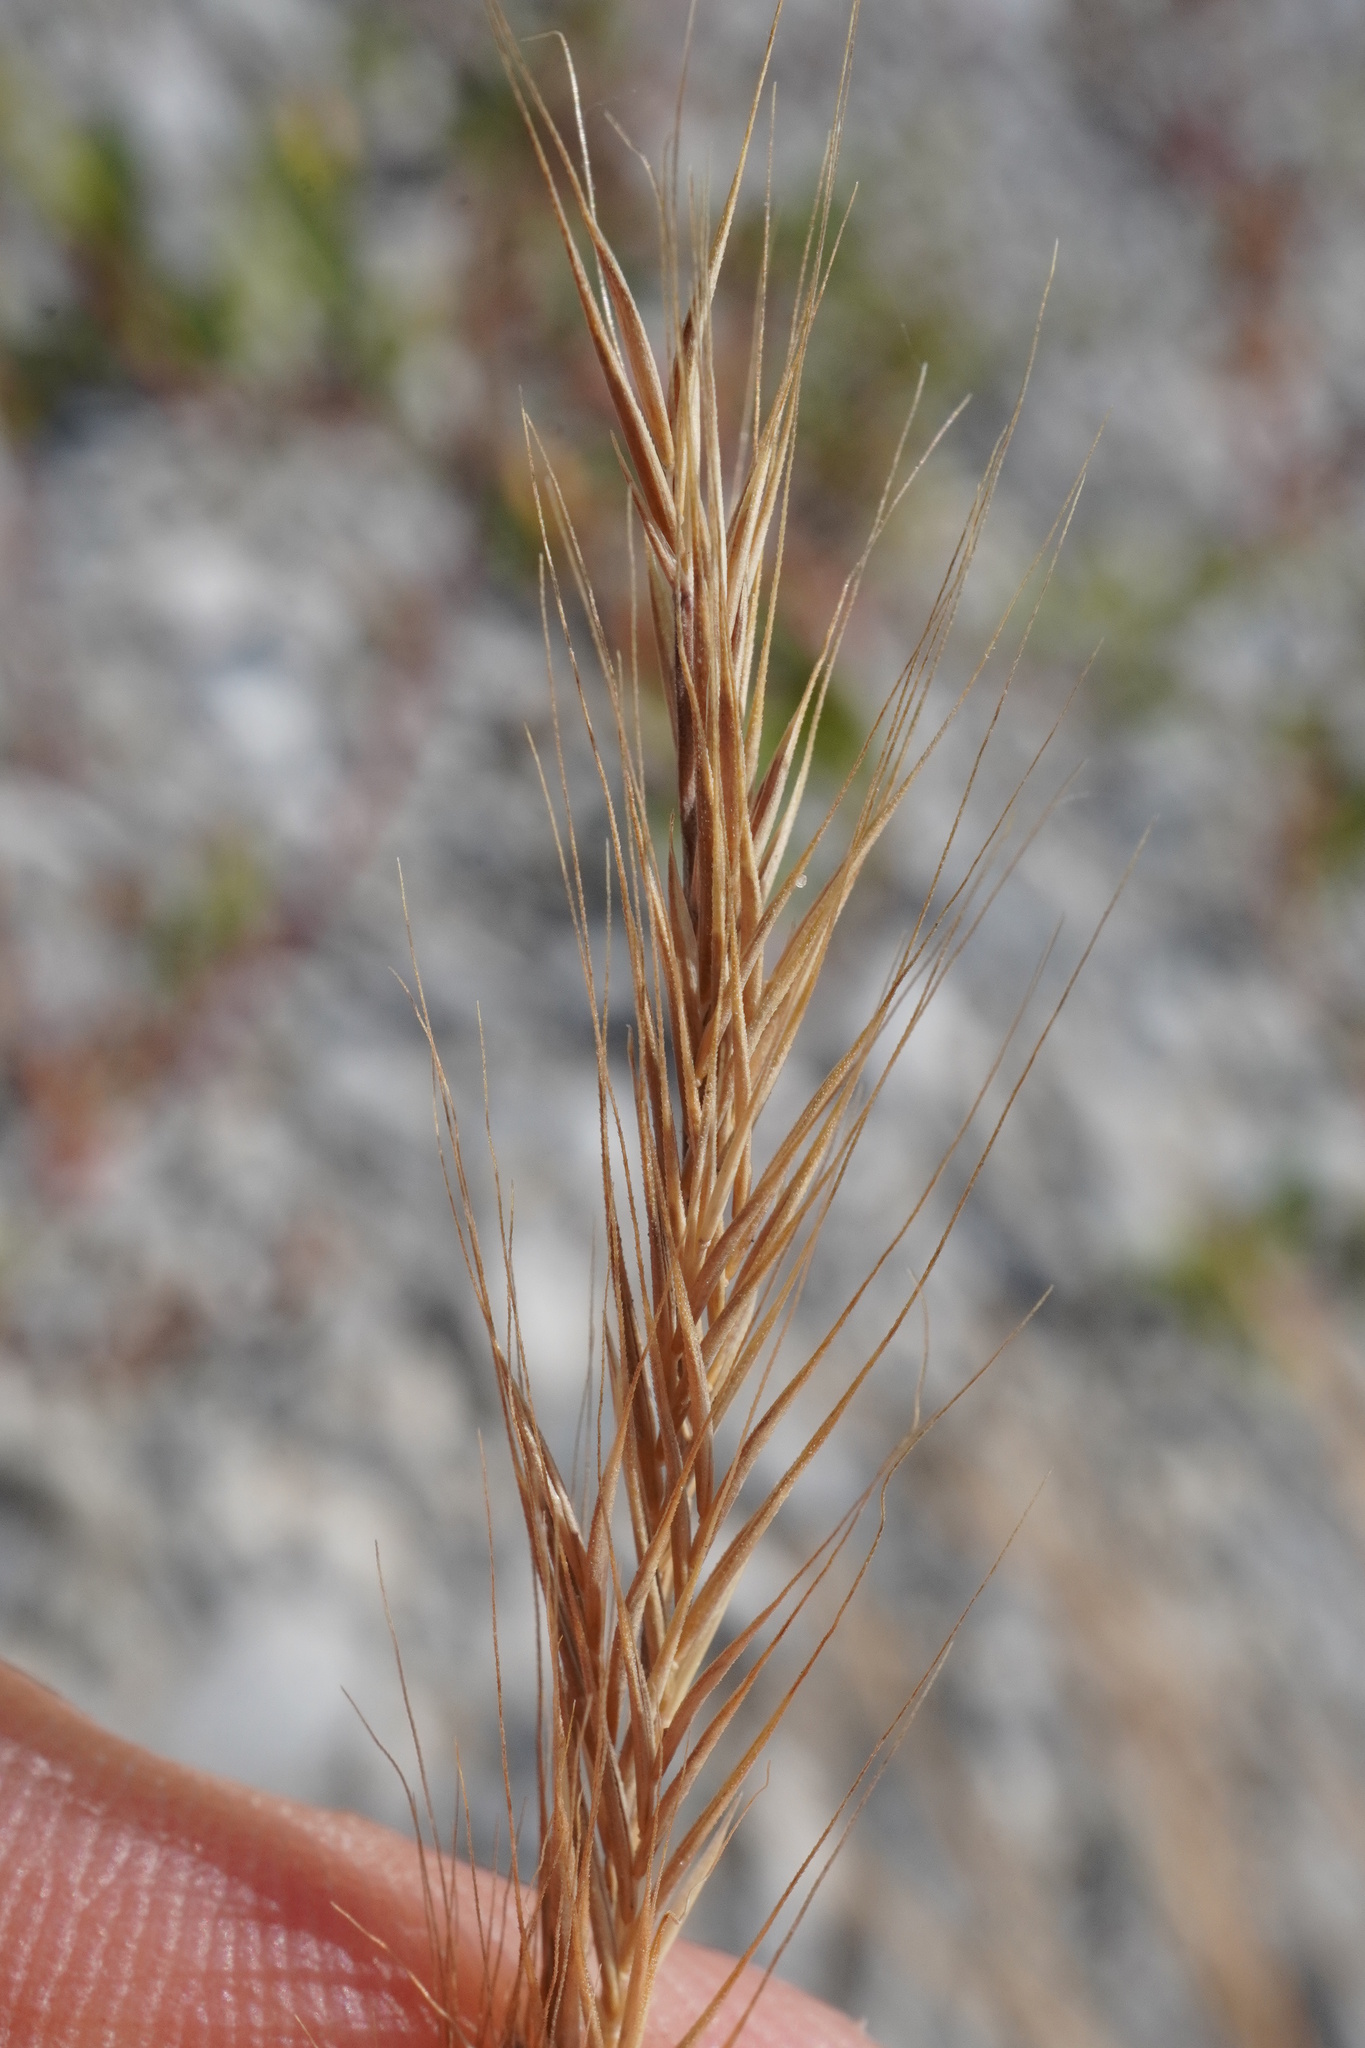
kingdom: Plantae
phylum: Tracheophyta
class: Liliopsida
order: Poales
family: Poaceae
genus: Festuca
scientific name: Festuca myuros
